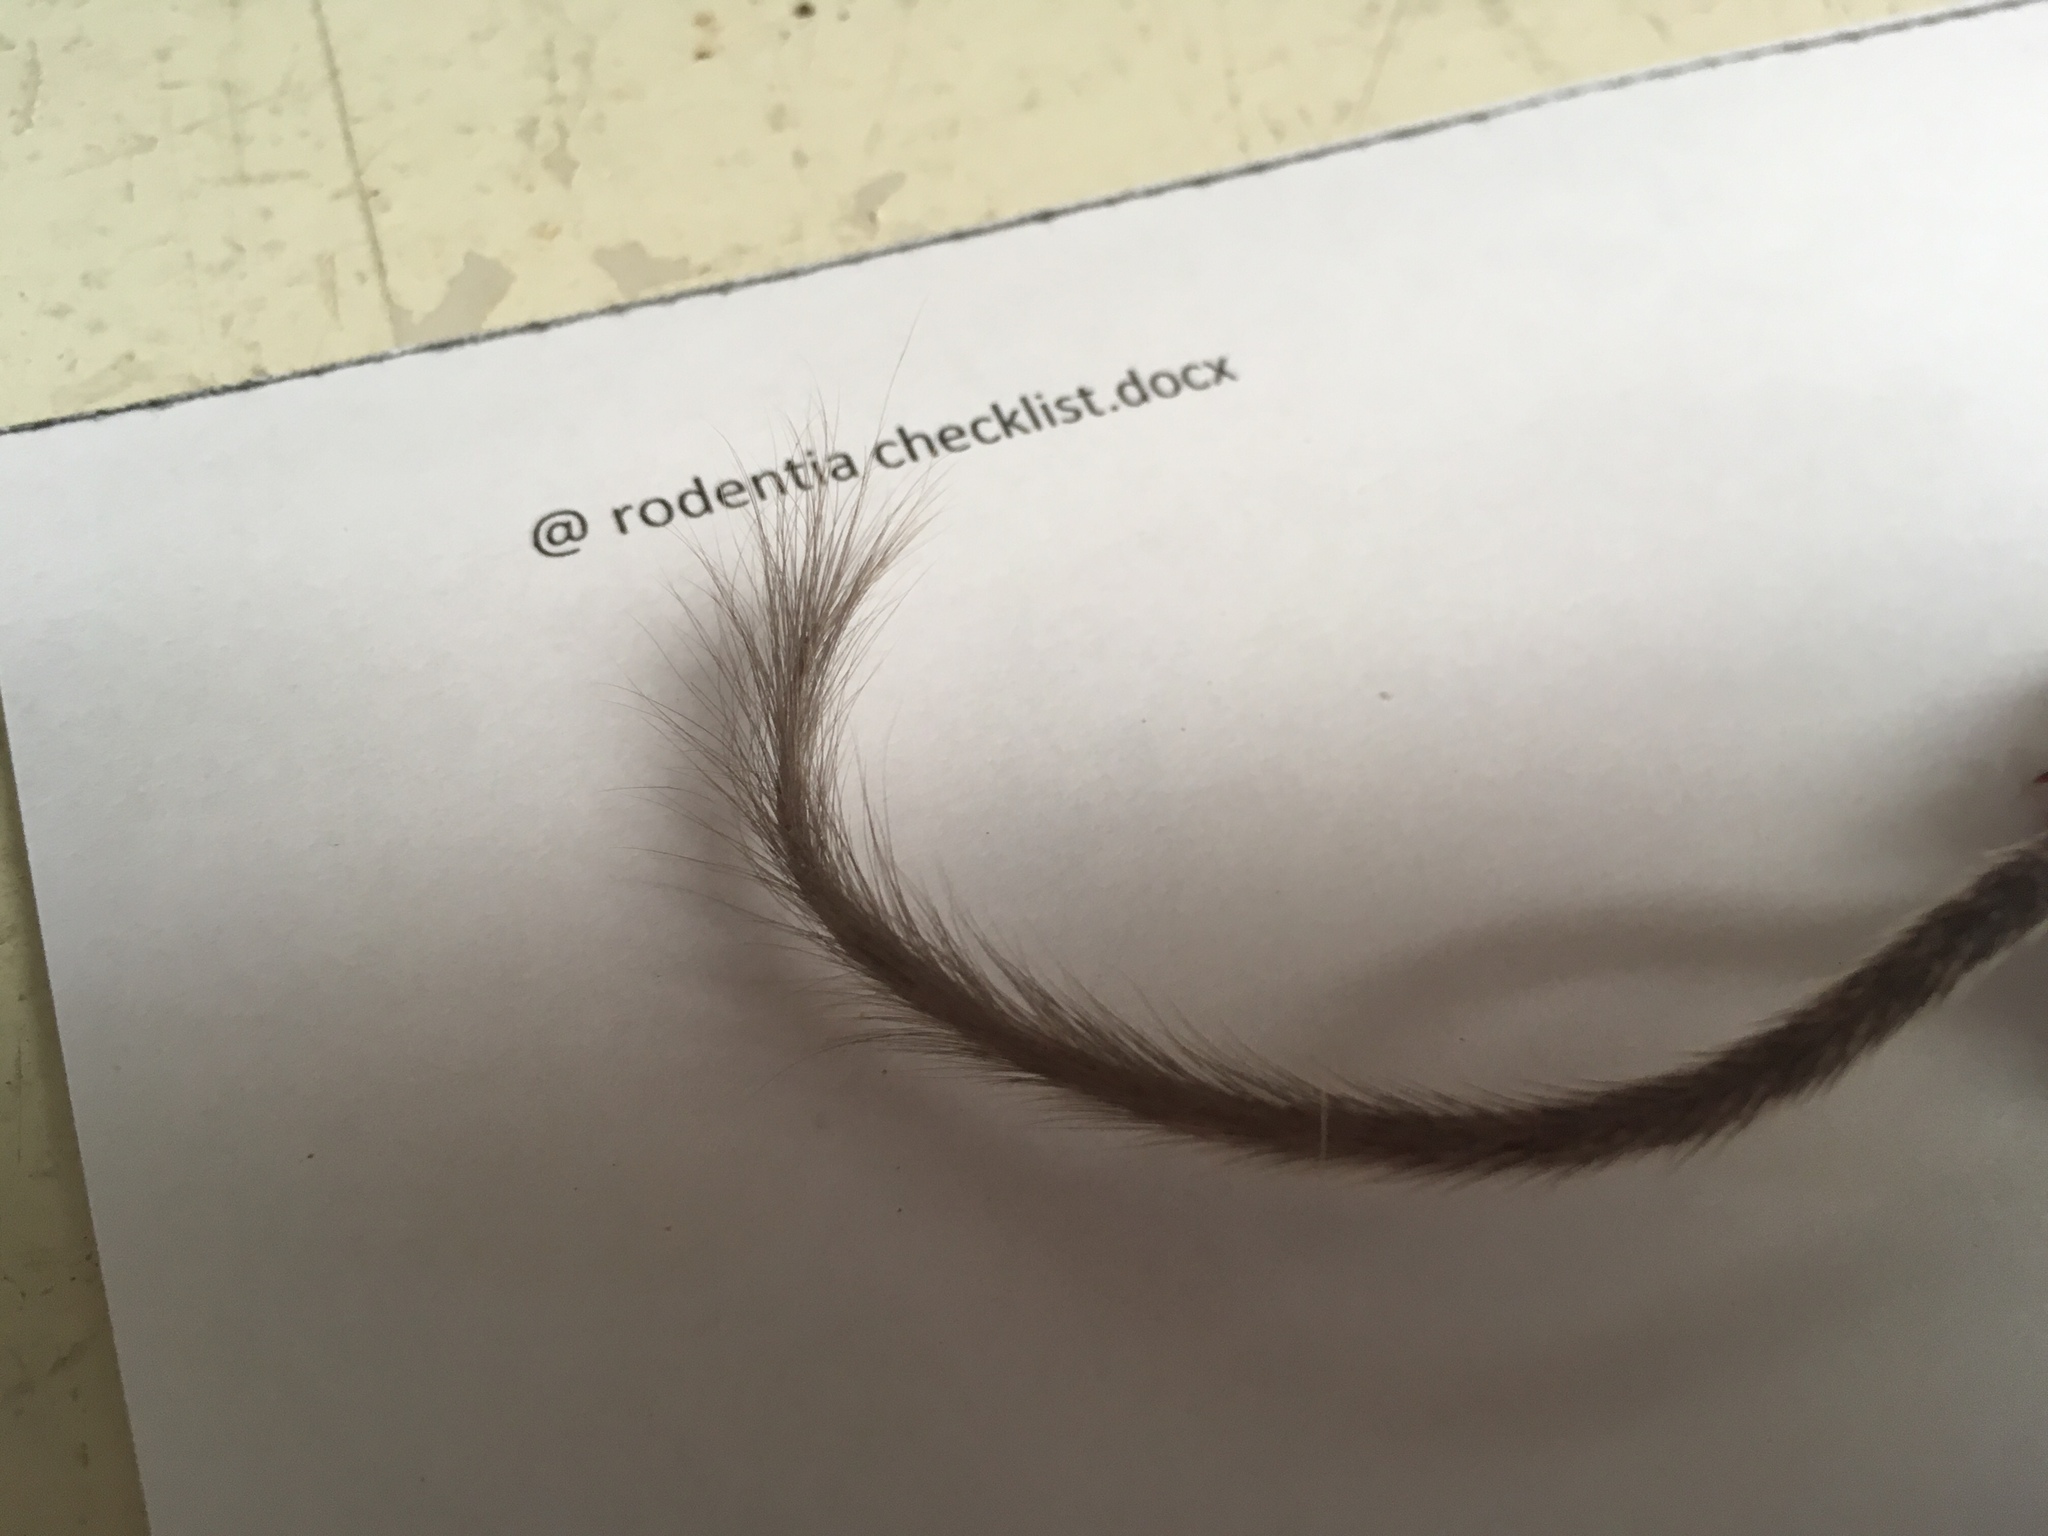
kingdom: Animalia
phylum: Chordata
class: Mammalia
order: Rodentia
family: Heteromyidae
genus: Chaetodipus
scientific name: Chaetodipus fallax
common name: San diego pocket mouse
